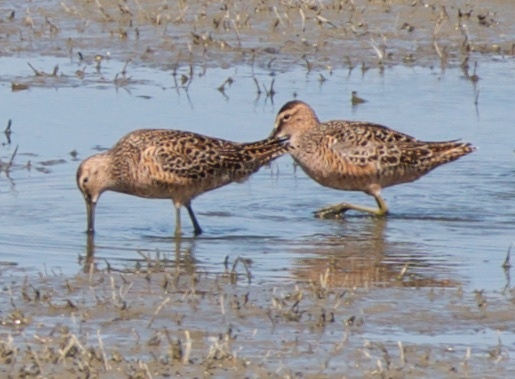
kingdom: Animalia
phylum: Chordata
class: Aves
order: Charadriiformes
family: Scolopacidae
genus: Limnodromus
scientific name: Limnodromus scolopaceus
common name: Long-billed dowitcher
